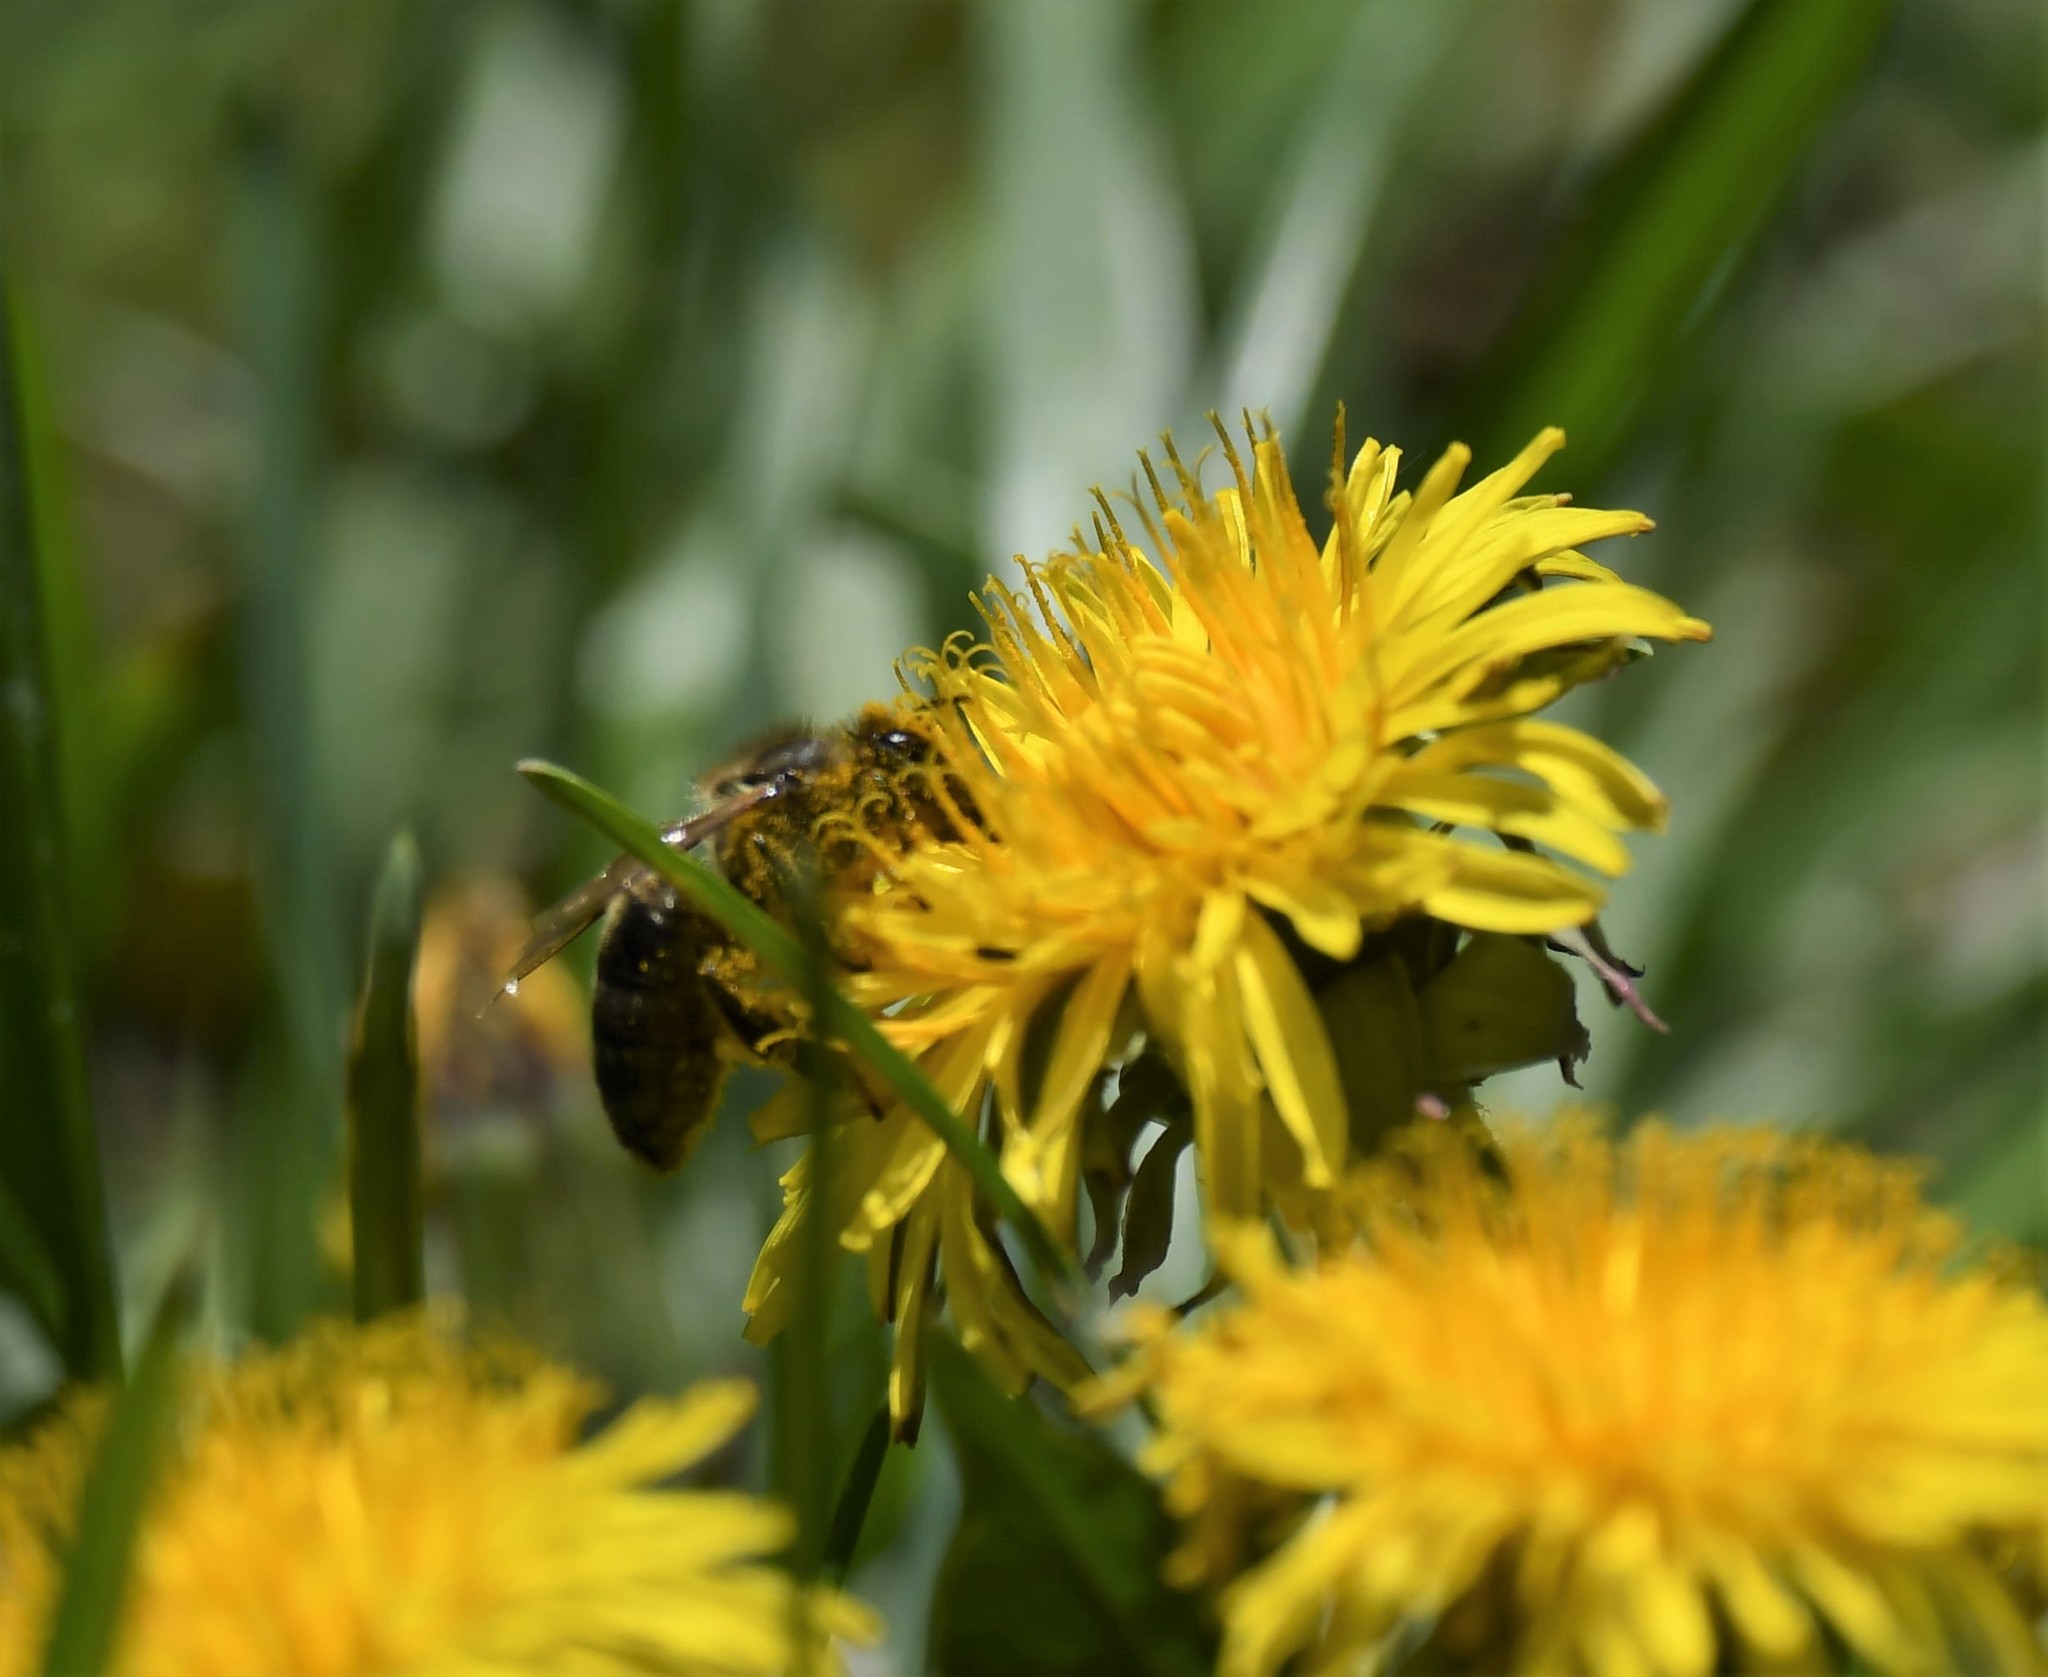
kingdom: Animalia
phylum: Arthropoda
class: Insecta
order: Hymenoptera
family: Apidae
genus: Apis
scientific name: Apis mellifera
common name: Honey bee
